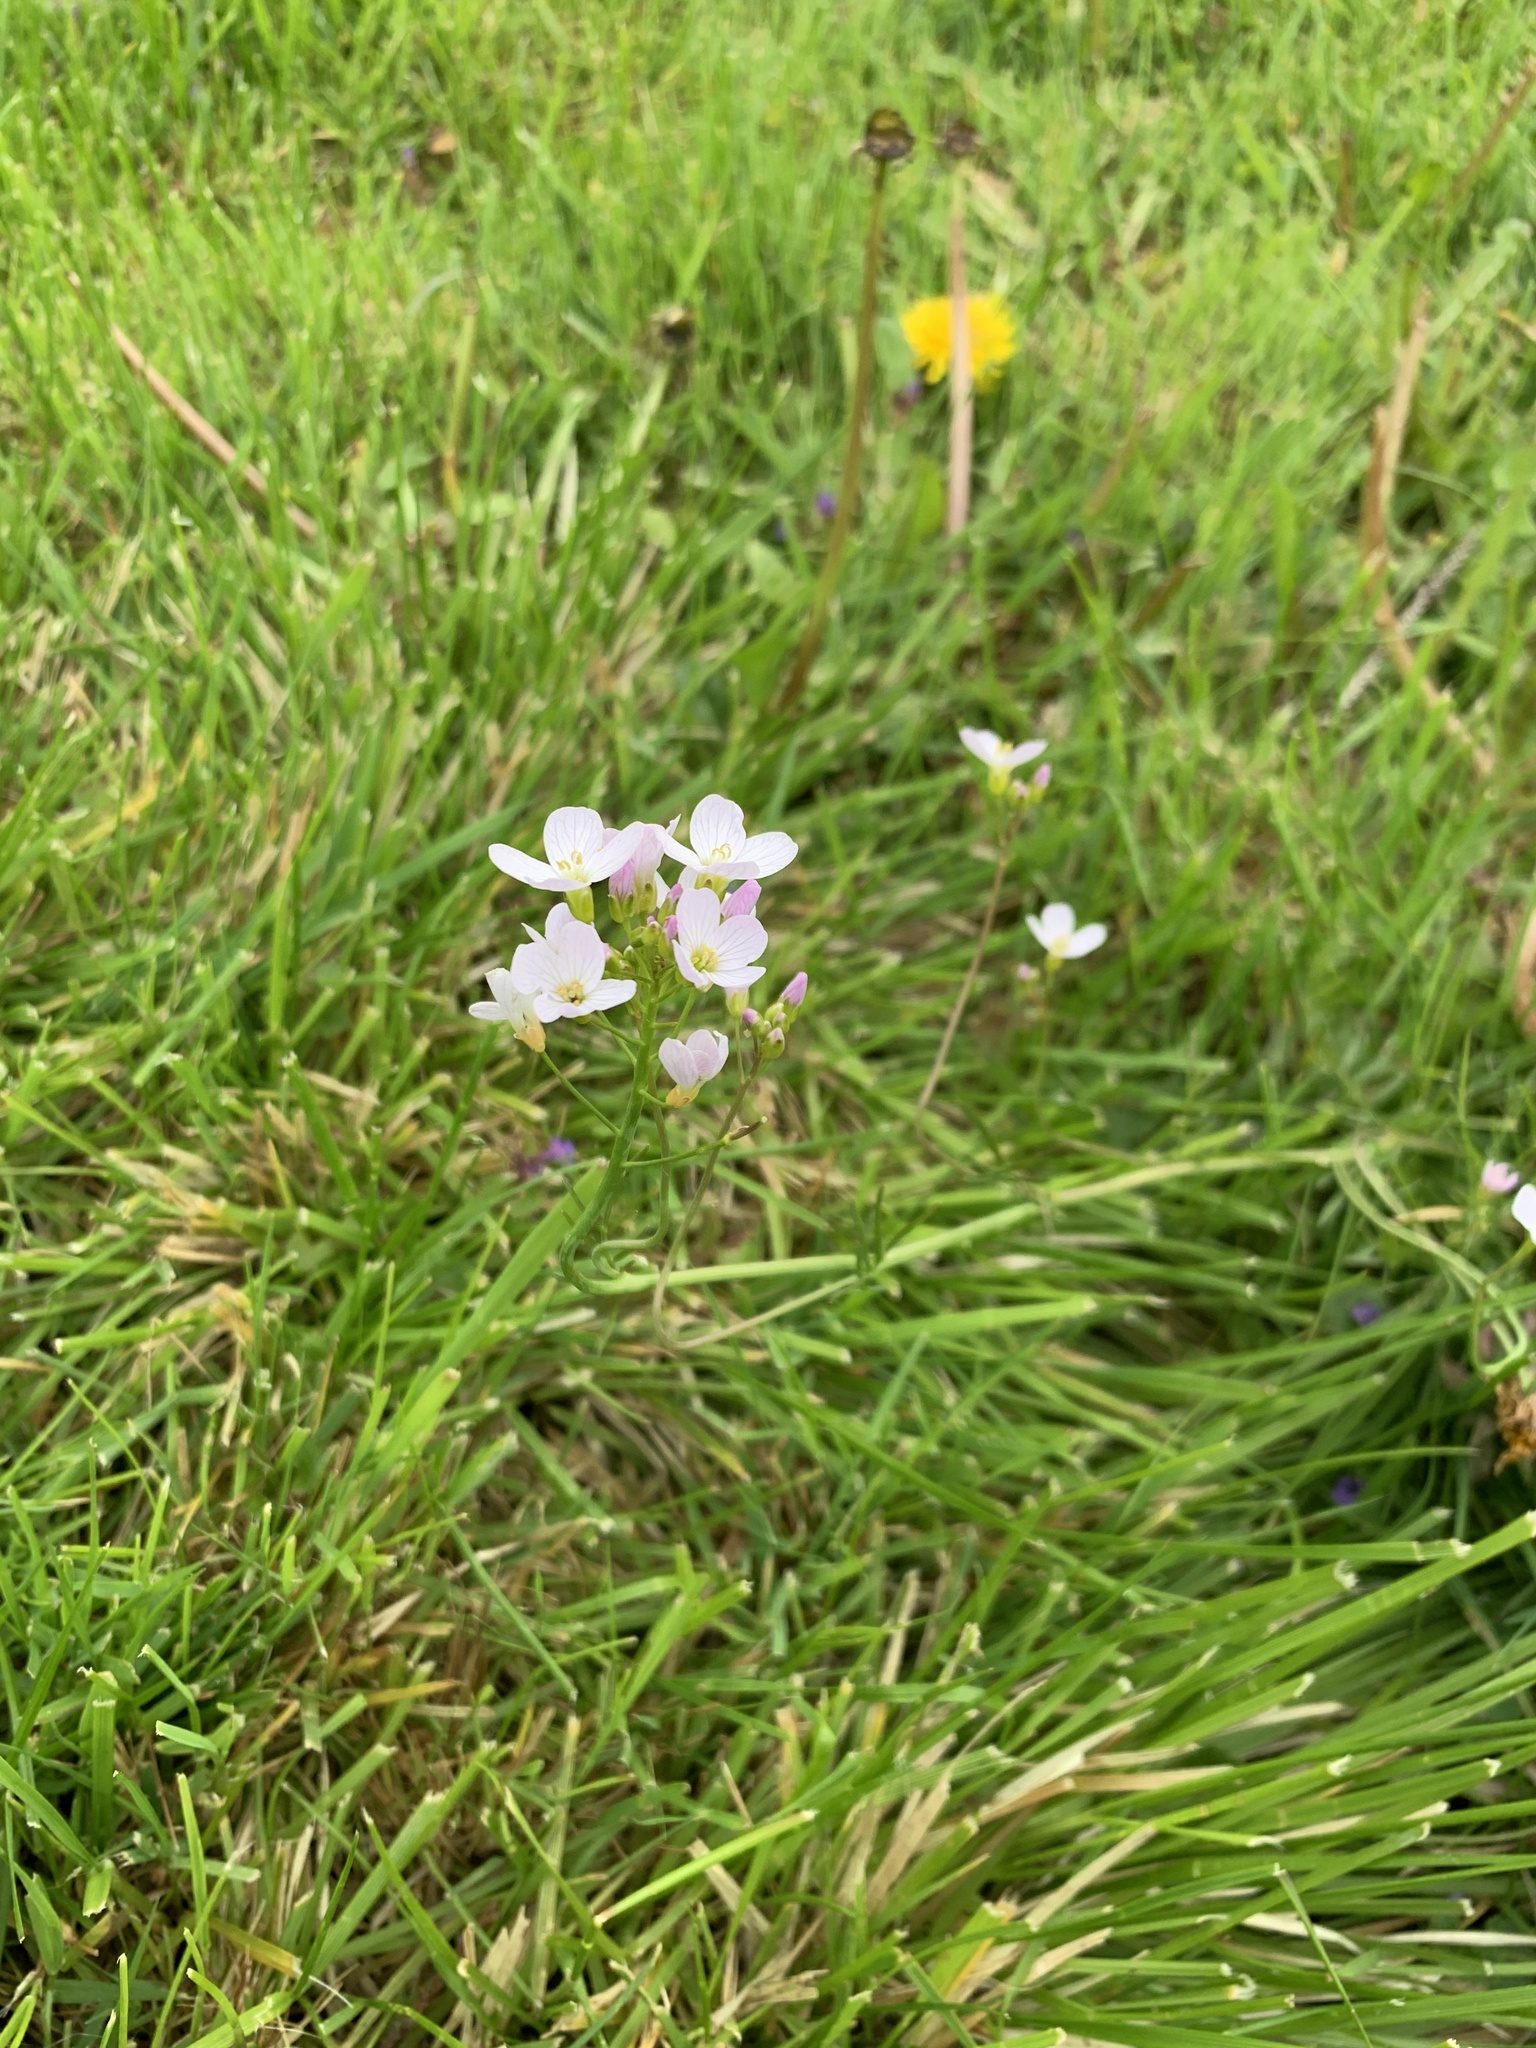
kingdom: Plantae
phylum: Tracheophyta
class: Magnoliopsida
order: Brassicales
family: Brassicaceae
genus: Cardamine
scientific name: Cardamine pratensis
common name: Cuckoo flower
